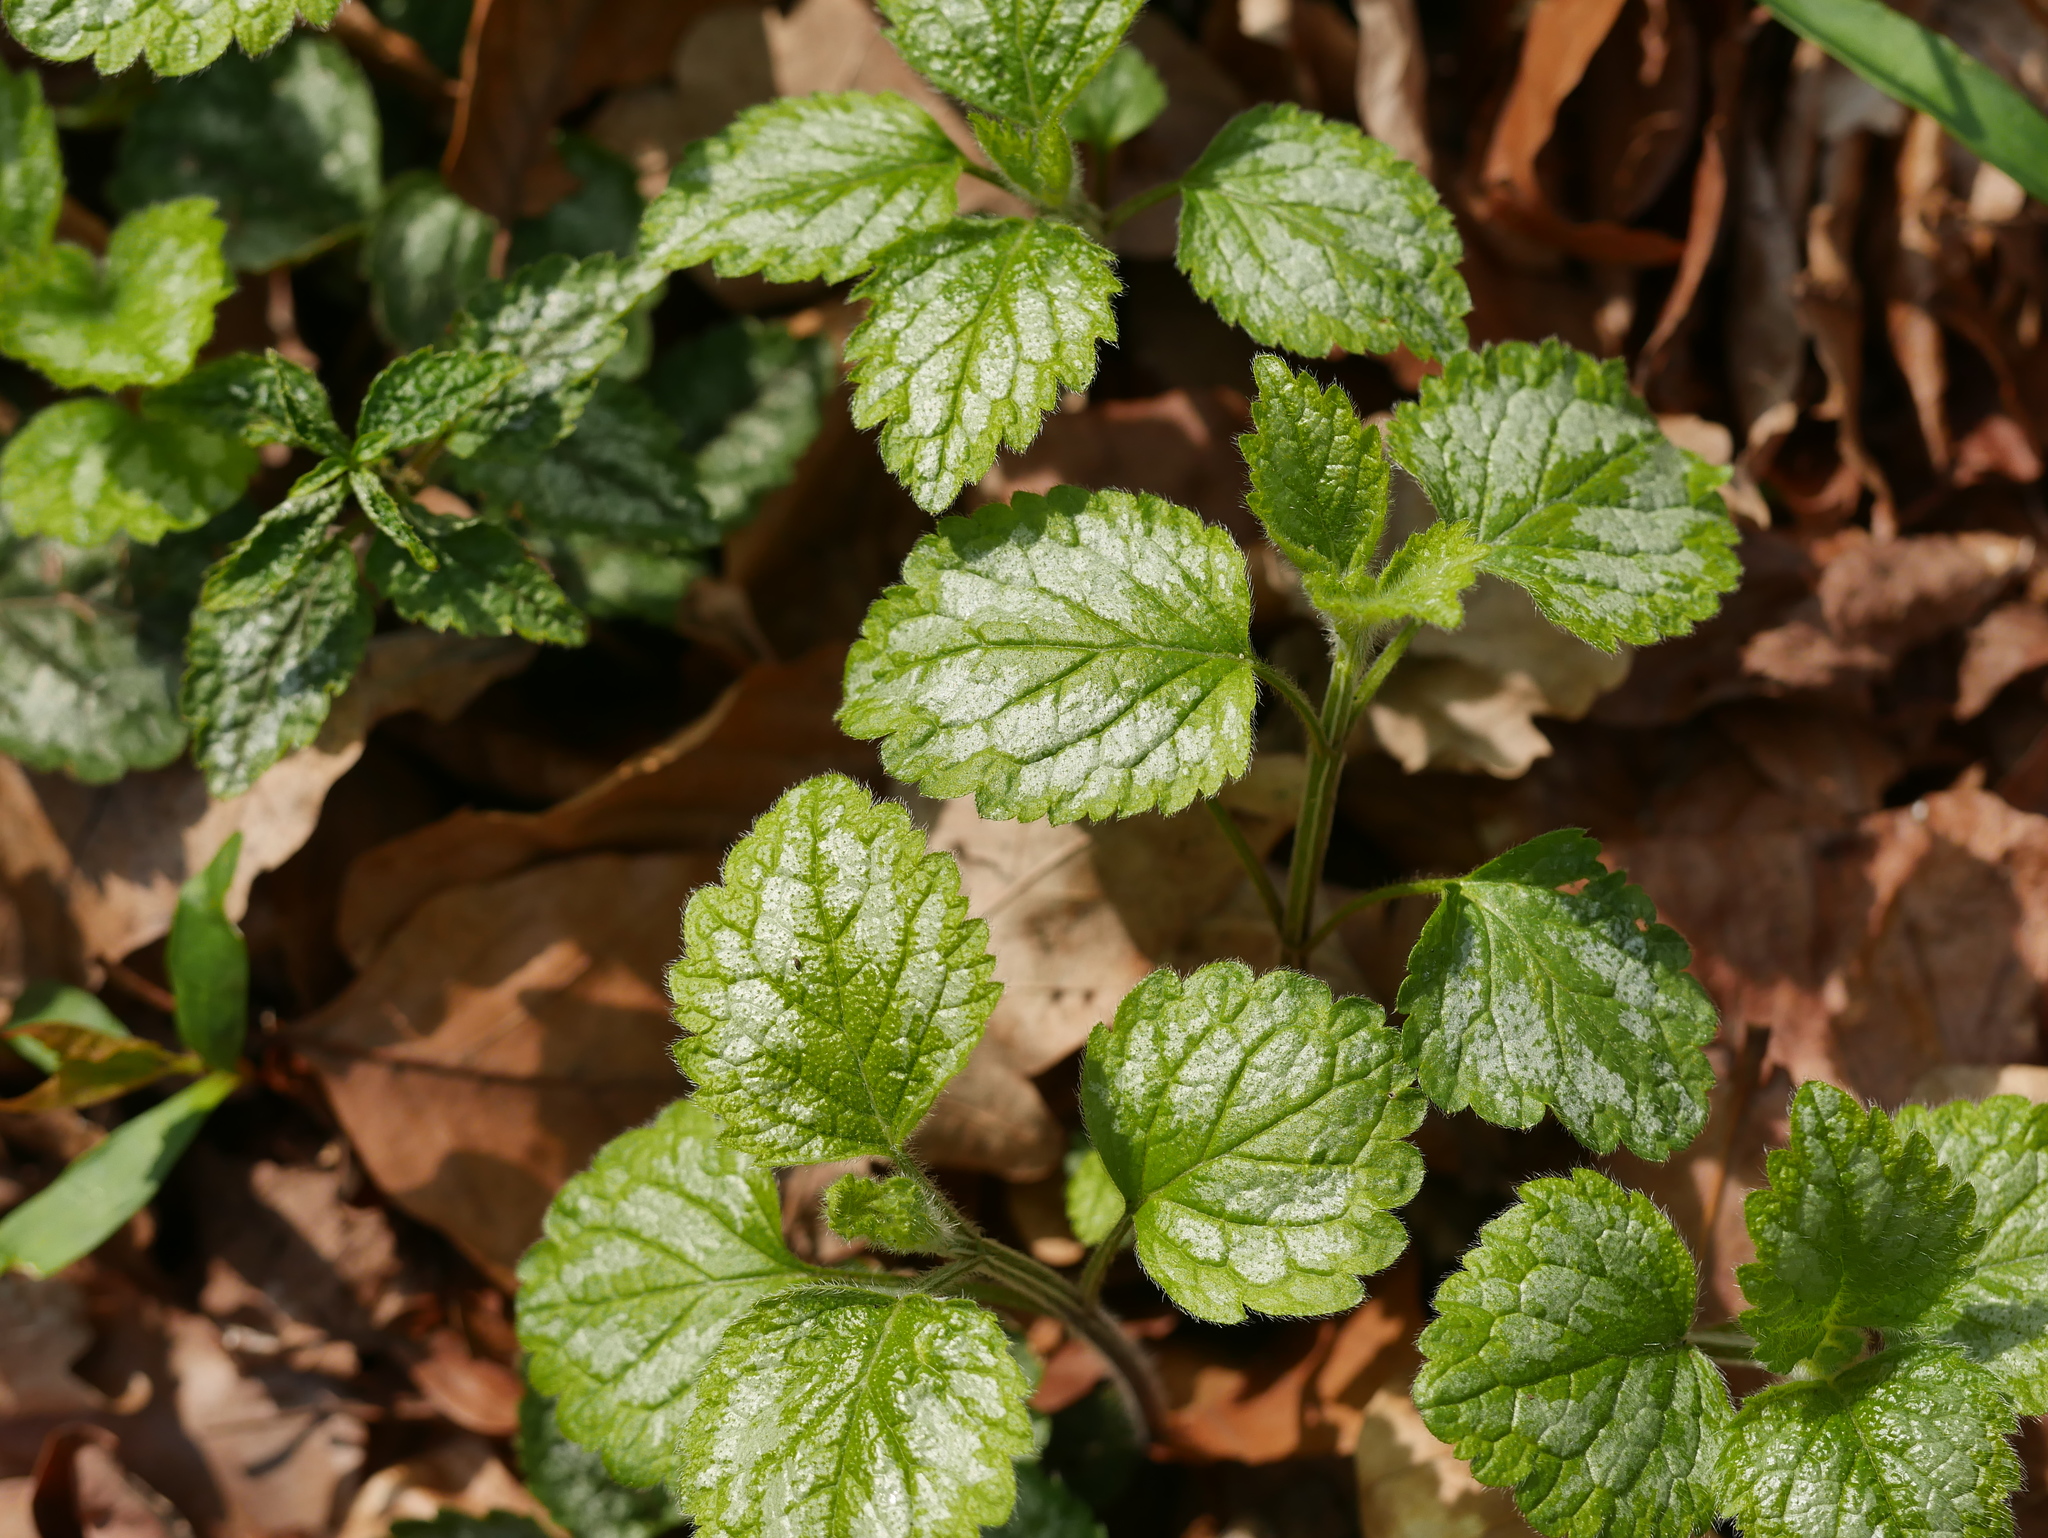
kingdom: Plantae
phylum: Tracheophyta
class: Magnoliopsida
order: Lamiales
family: Lamiaceae
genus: Lamium
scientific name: Lamium galeobdolon
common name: Yellow archangel
